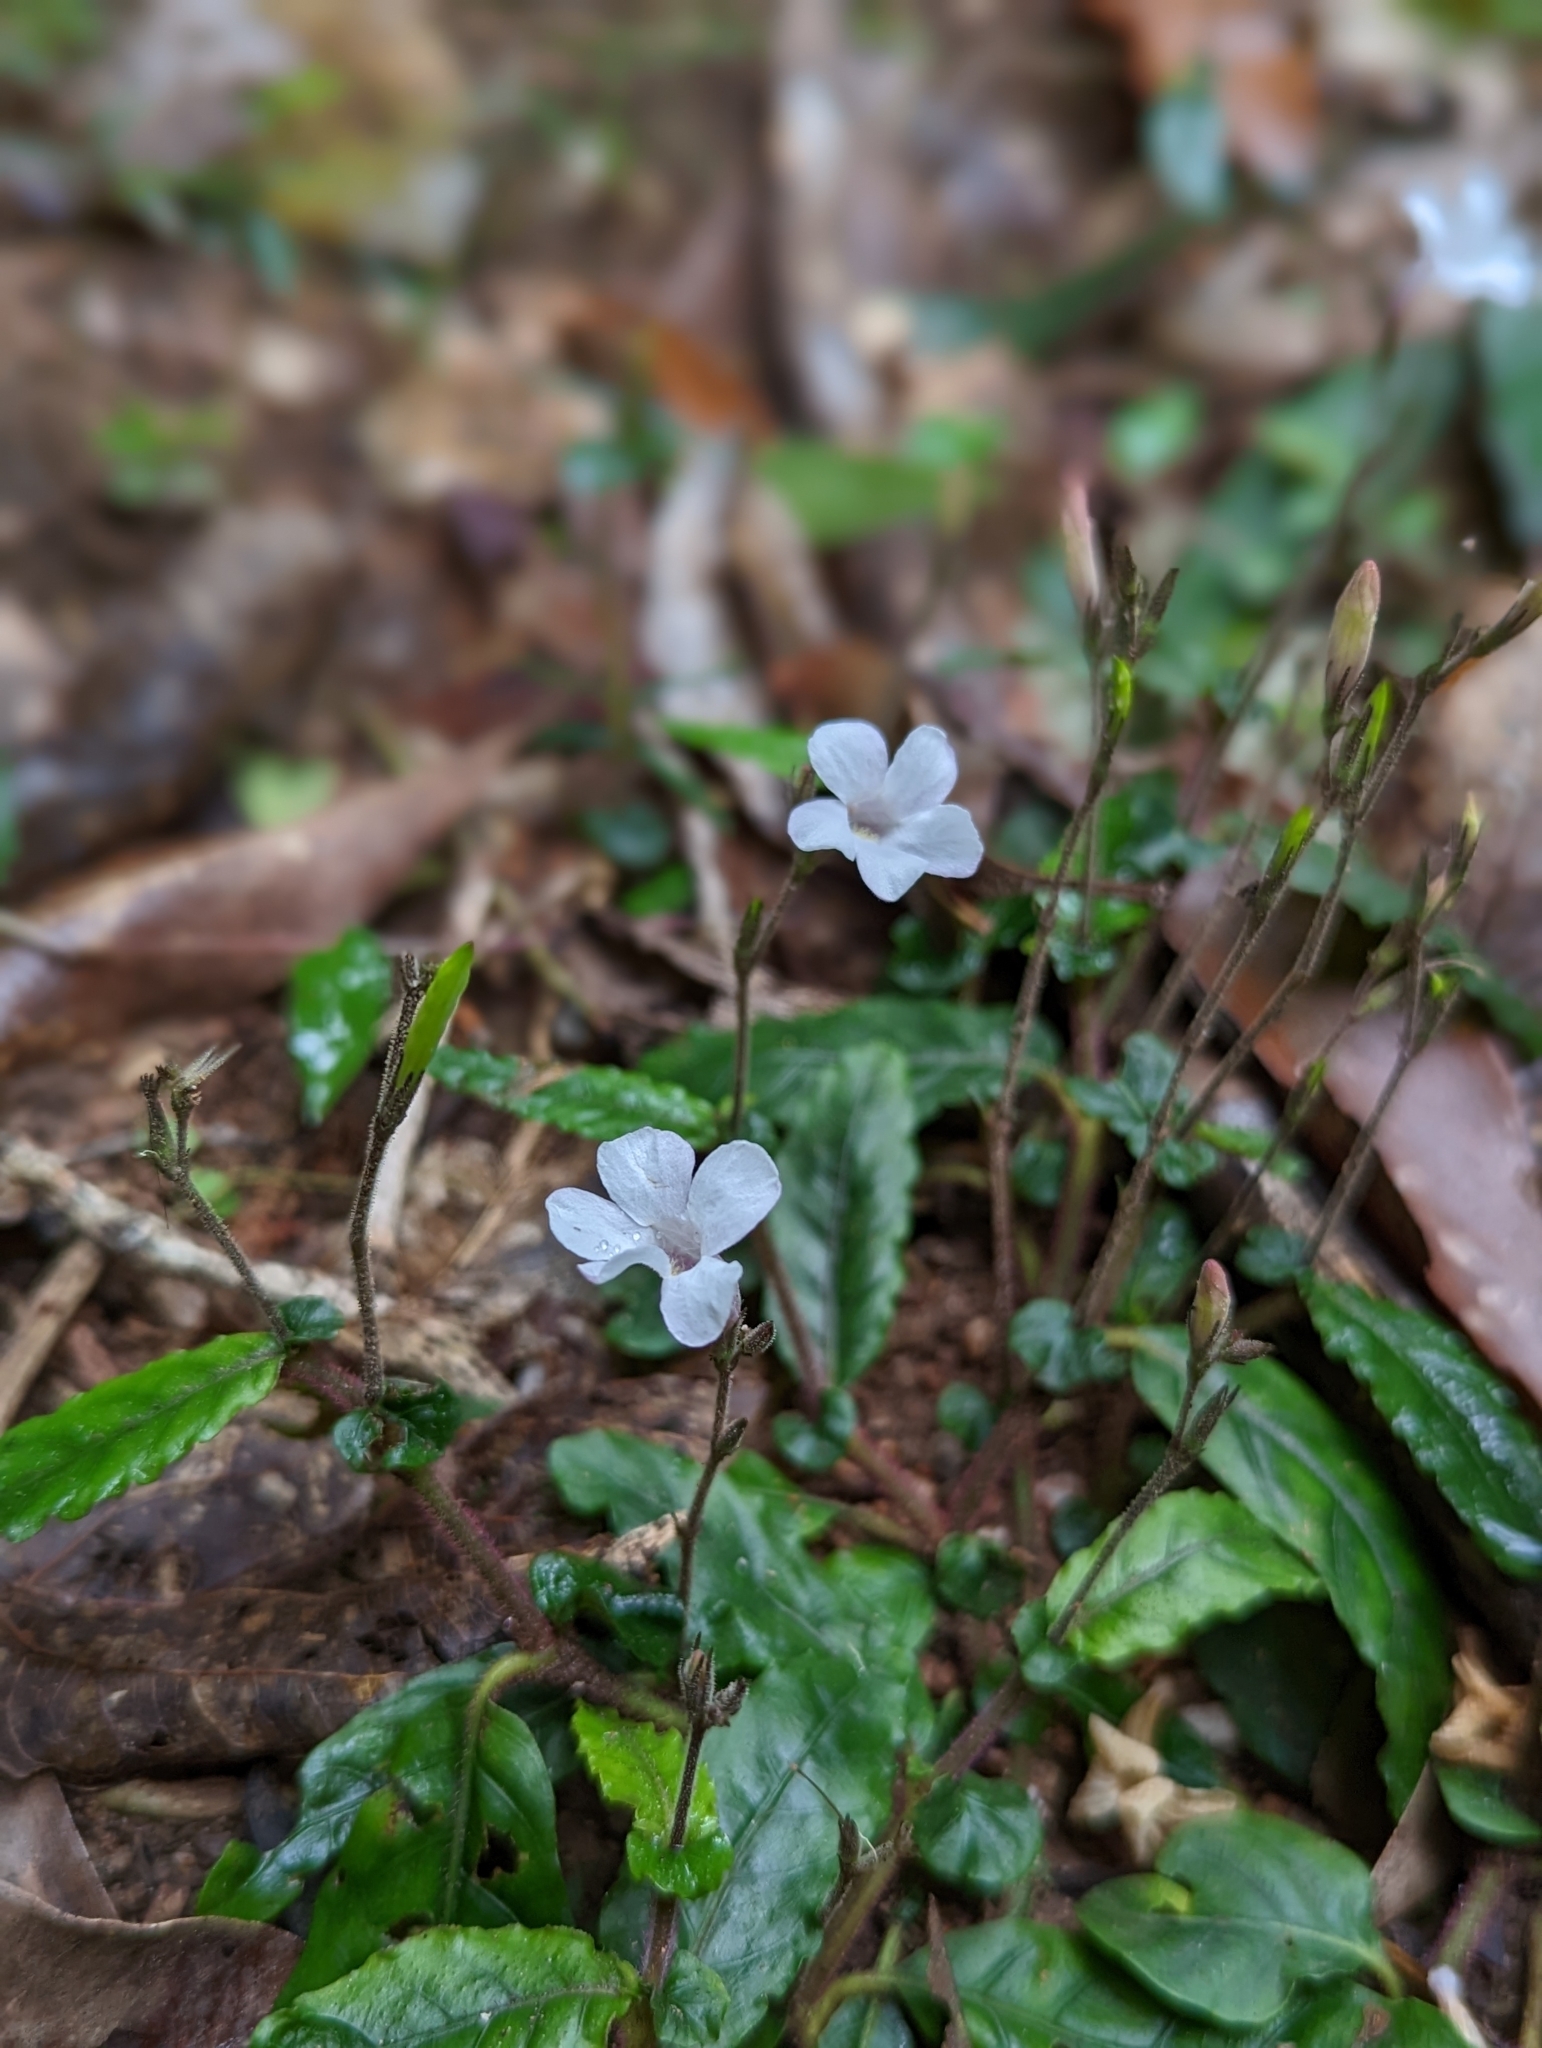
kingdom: Plantae
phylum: Tracheophyta
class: Magnoliopsida
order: Lamiales
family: Acanthaceae
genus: Brunoniella
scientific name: Brunoniella spiciflora
